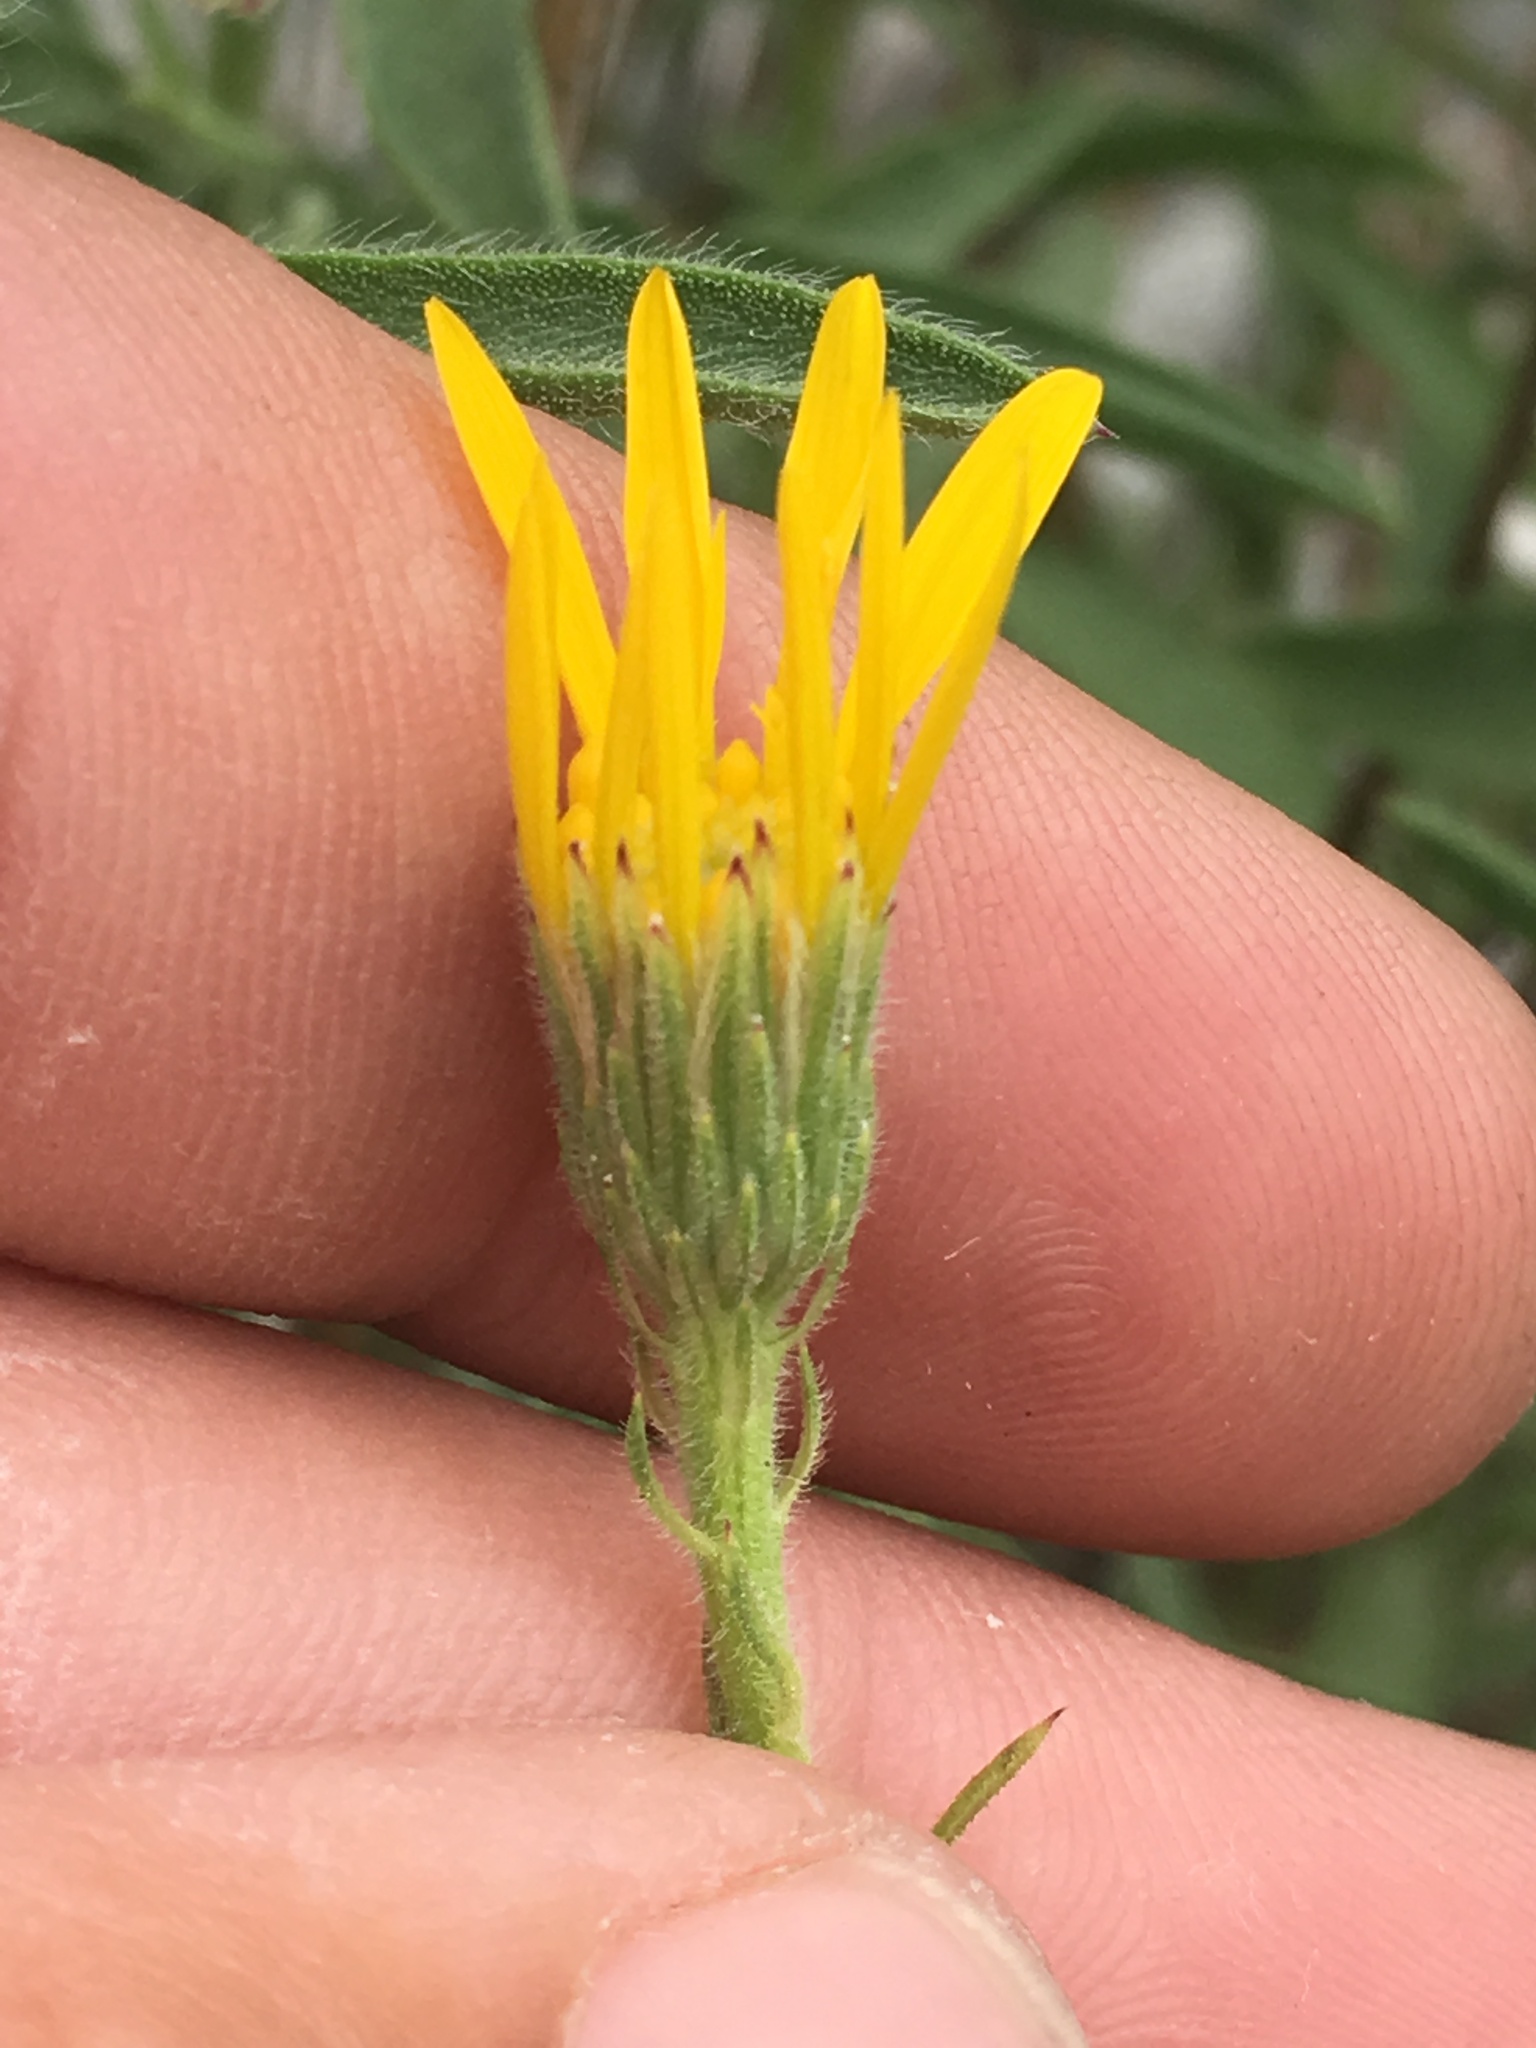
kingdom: Plantae
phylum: Tracheophyta
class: Magnoliopsida
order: Asterales
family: Asteraceae
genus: Heterotheca
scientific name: Heterotheca shevockii
